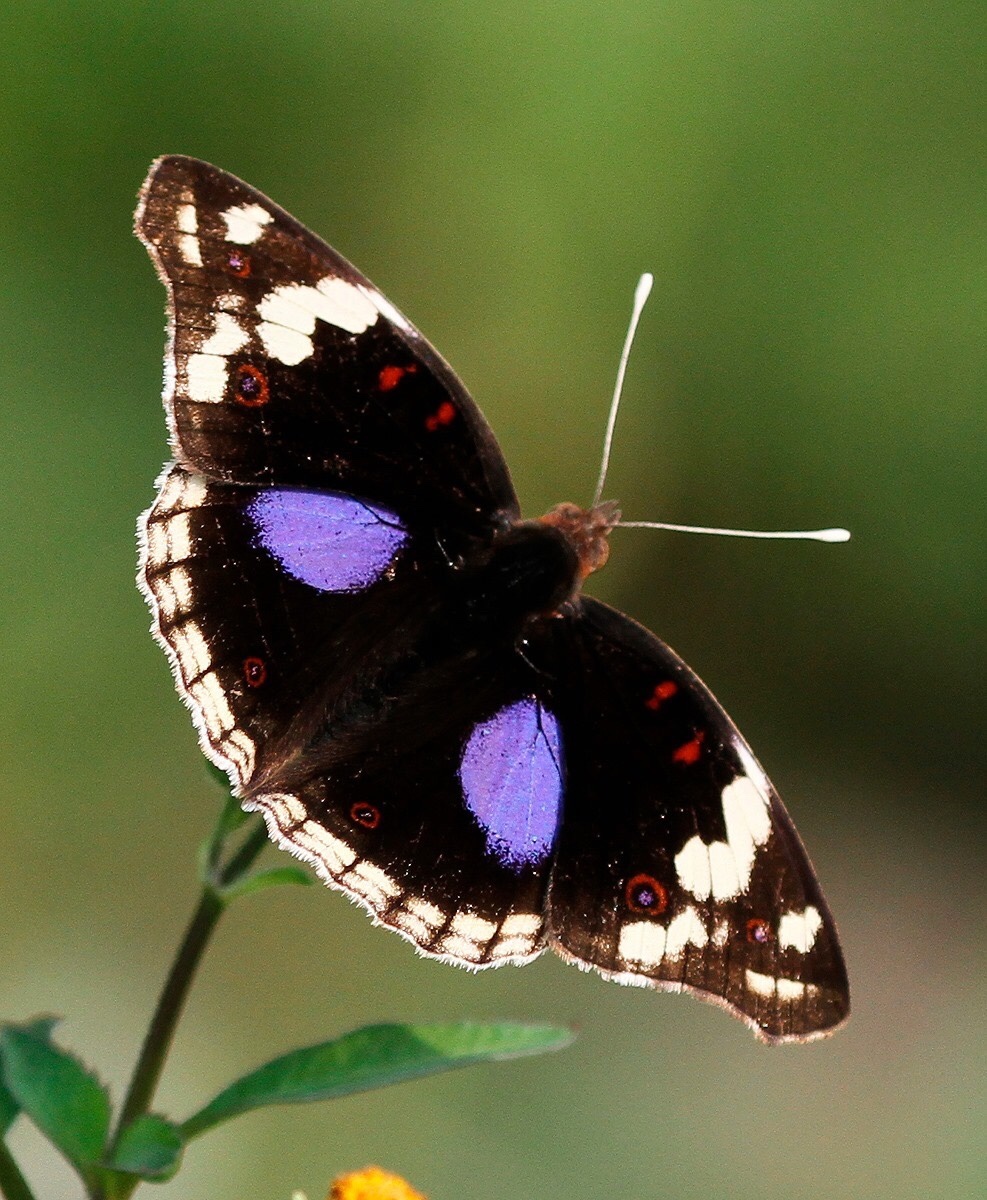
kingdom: Animalia
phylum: Arthropoda
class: Insecta
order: Lepidoptera
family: Nymphalidae
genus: Junonia
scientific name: Junonia oenone
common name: Dark blue pansy
